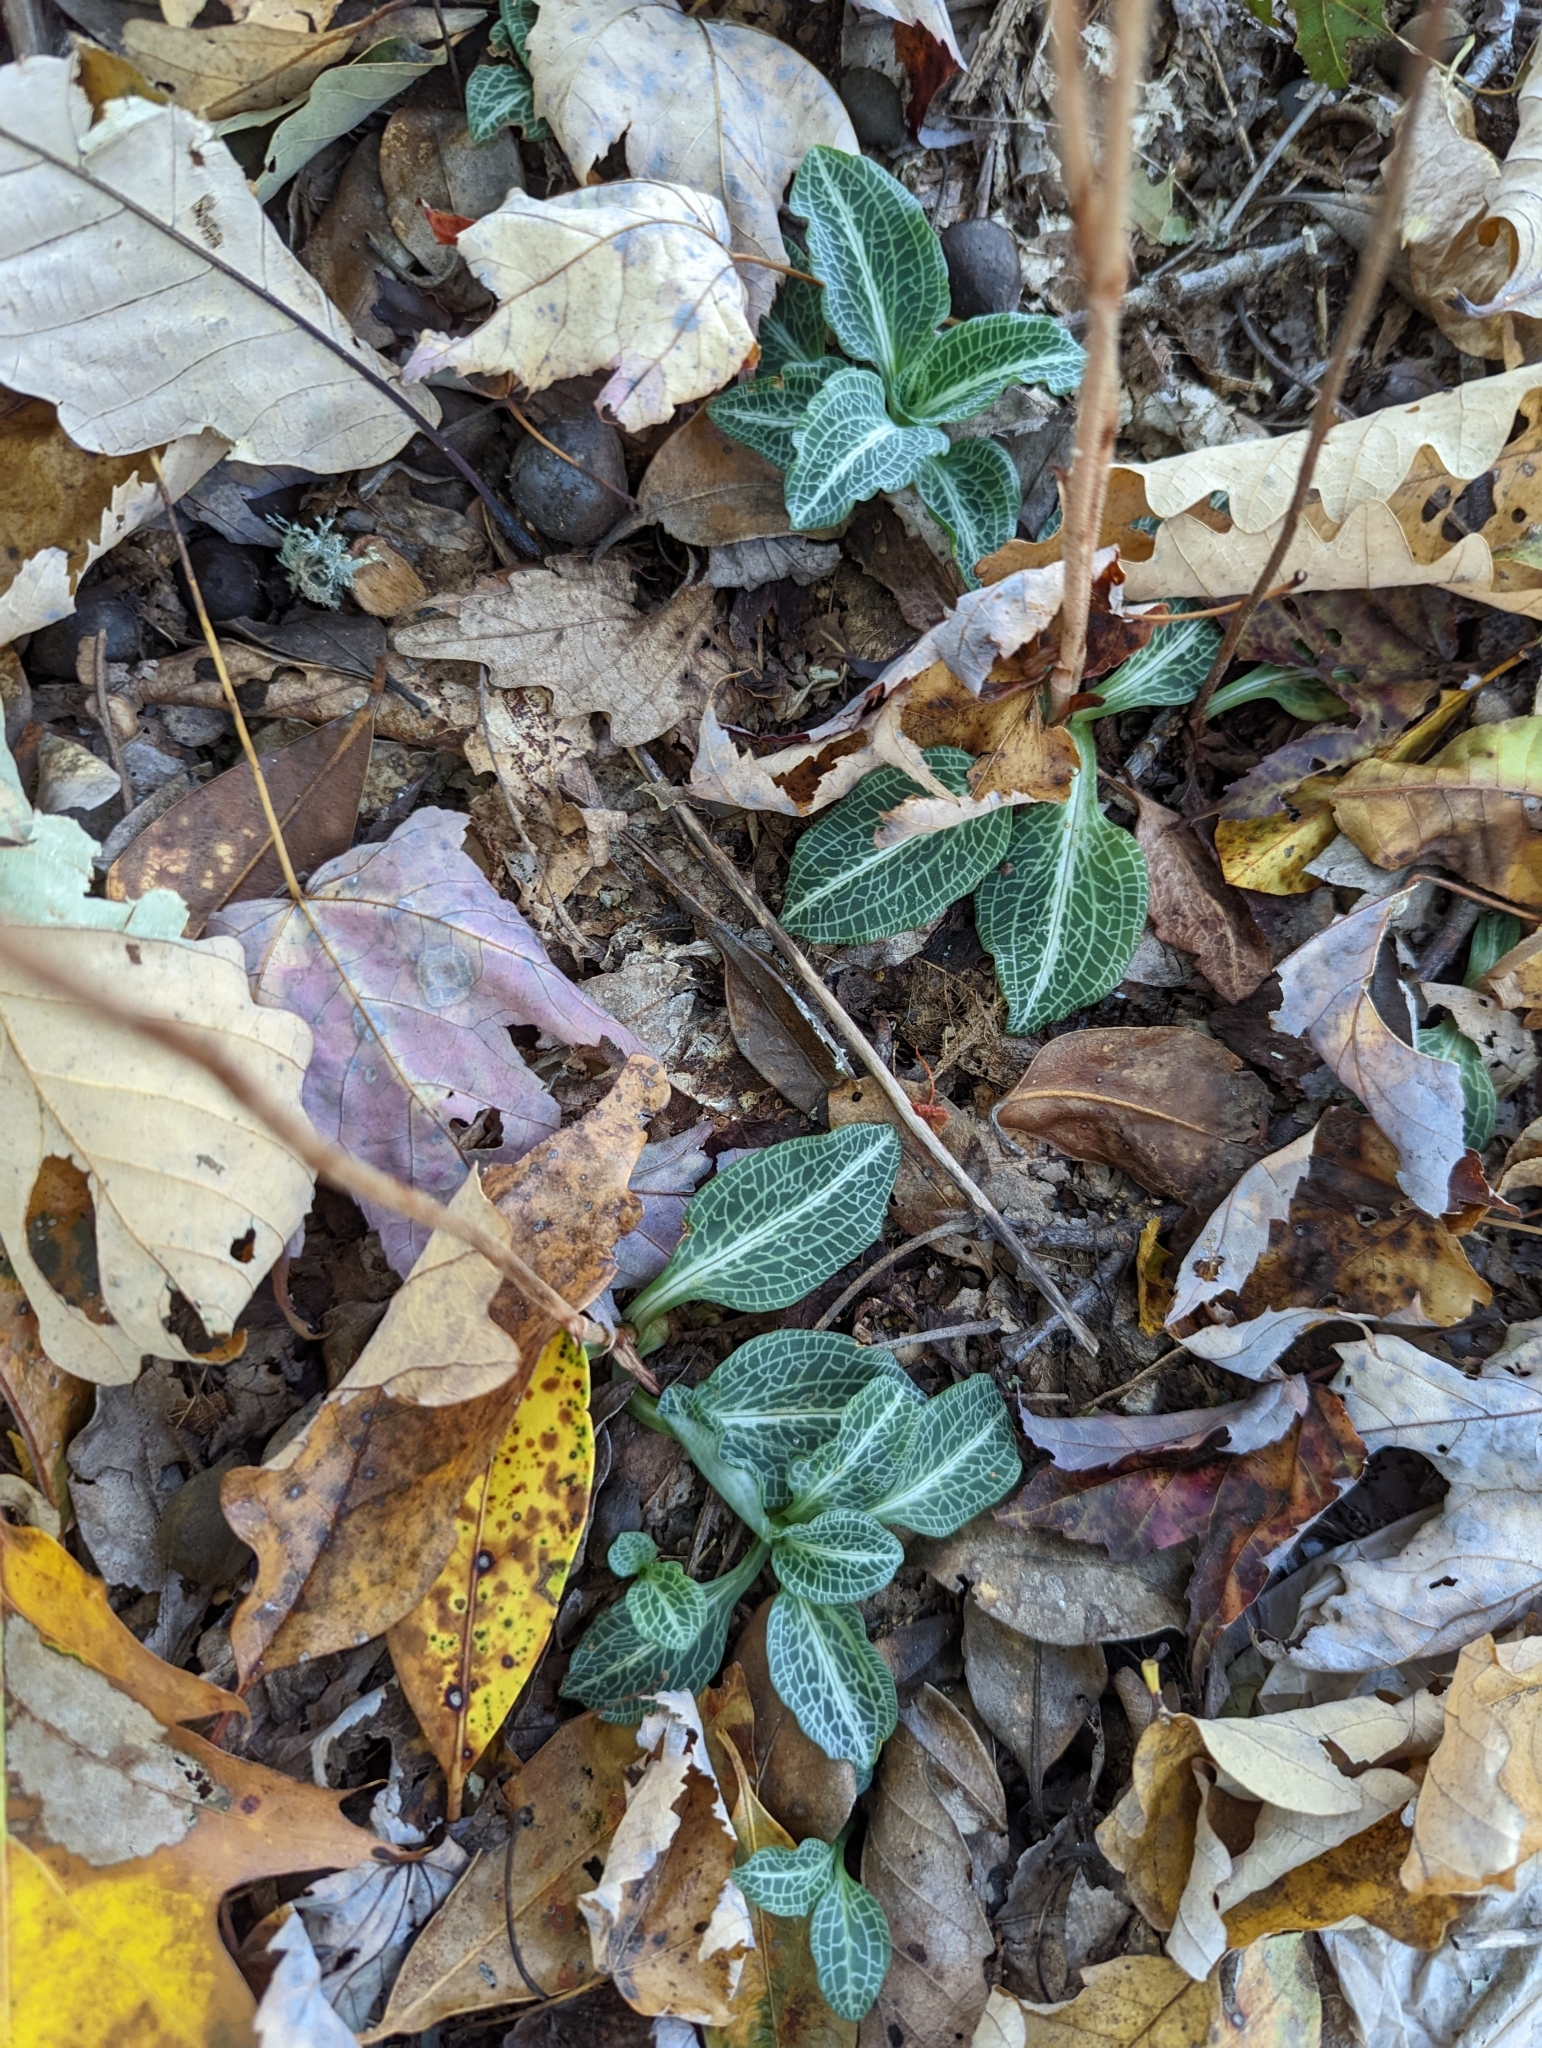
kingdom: Plantae
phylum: Tracheophyta
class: Liliopsida
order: Asparagales
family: Orchidaceae
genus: Goodyera
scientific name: Goodyera pubescens
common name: Downy rattlesnake-plantain
